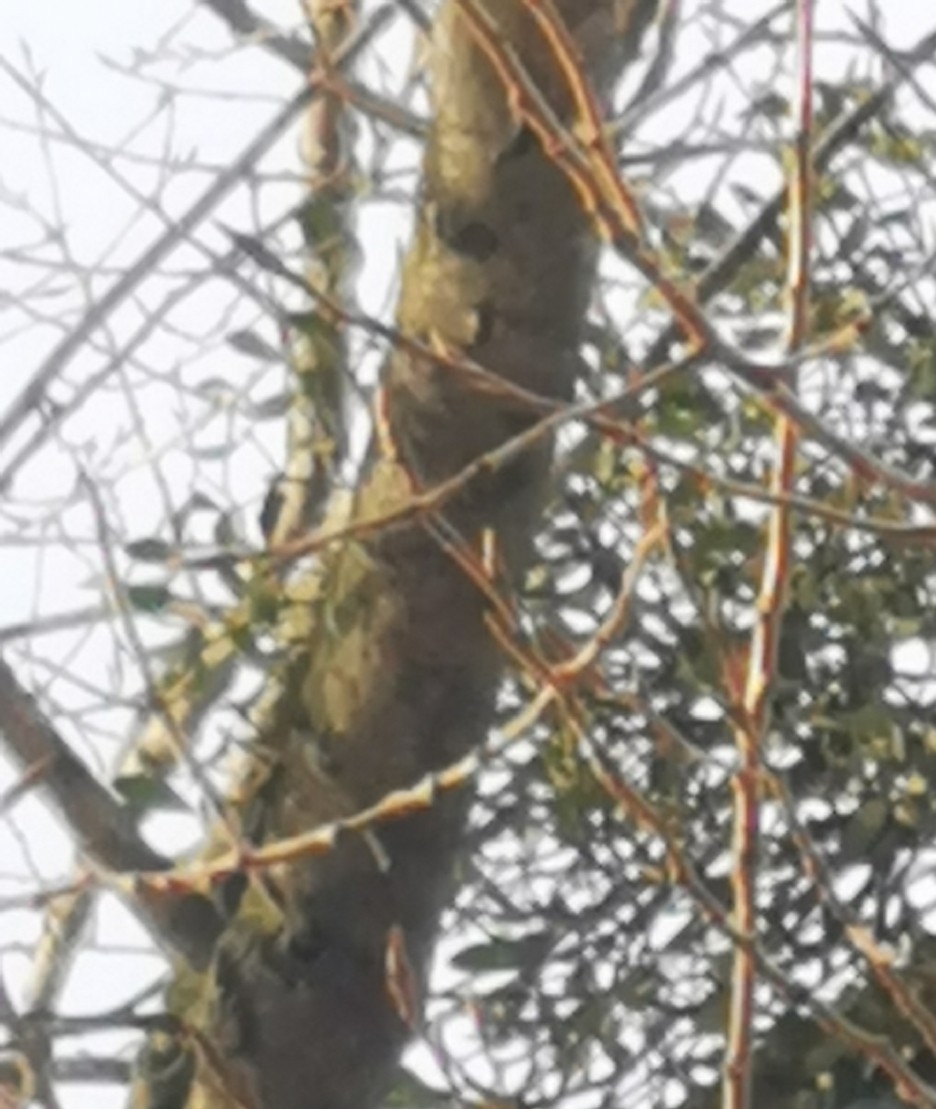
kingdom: Plantae
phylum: Tracheophyta
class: Magnoliopsida
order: Santalales
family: Viscaceae
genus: Viscum
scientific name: Viscum album
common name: Mistletoe
